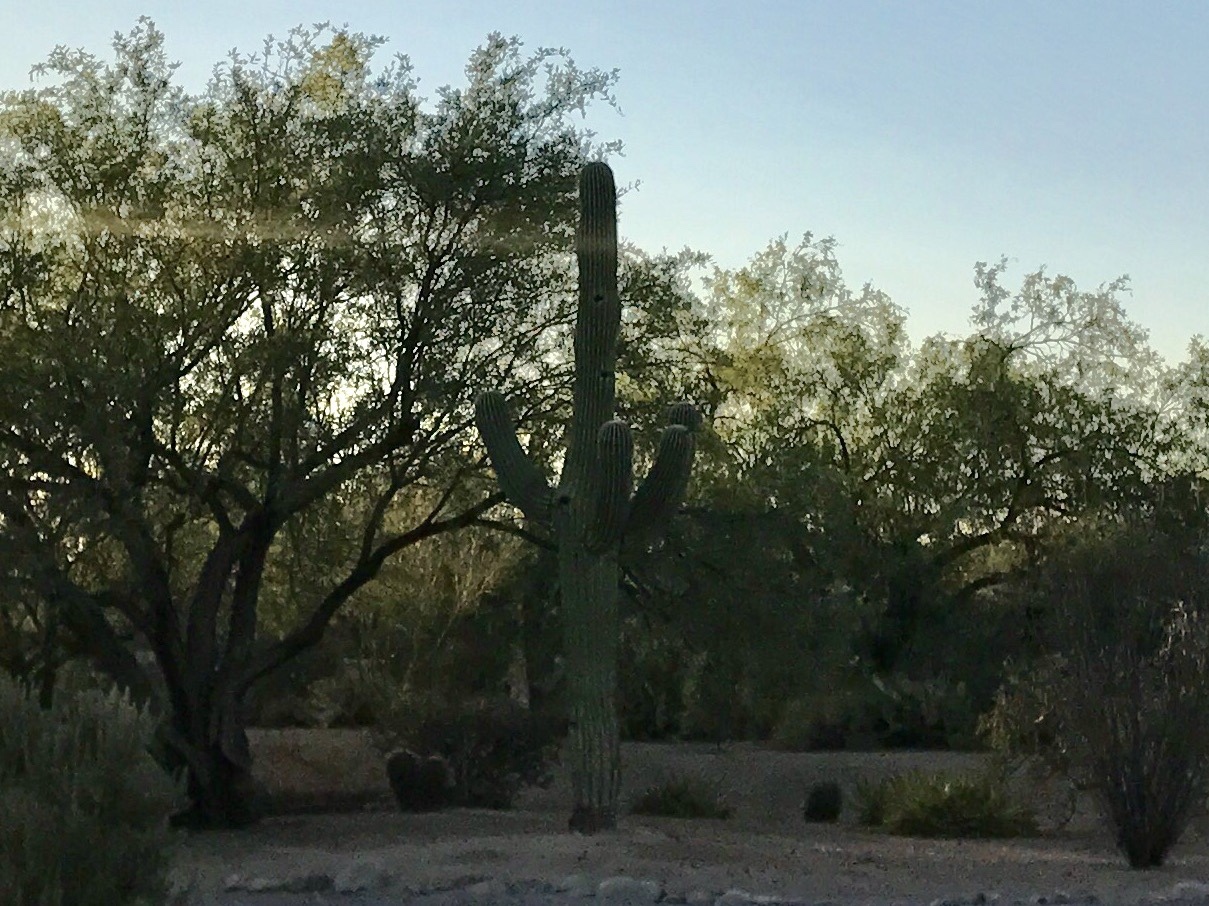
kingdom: Plantae
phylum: Tracheophyta
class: Magnoliopsida
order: Caryophyllales
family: Cactaceae
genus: Carnegiea
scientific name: Carnegiea gigantea
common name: Saguaro
